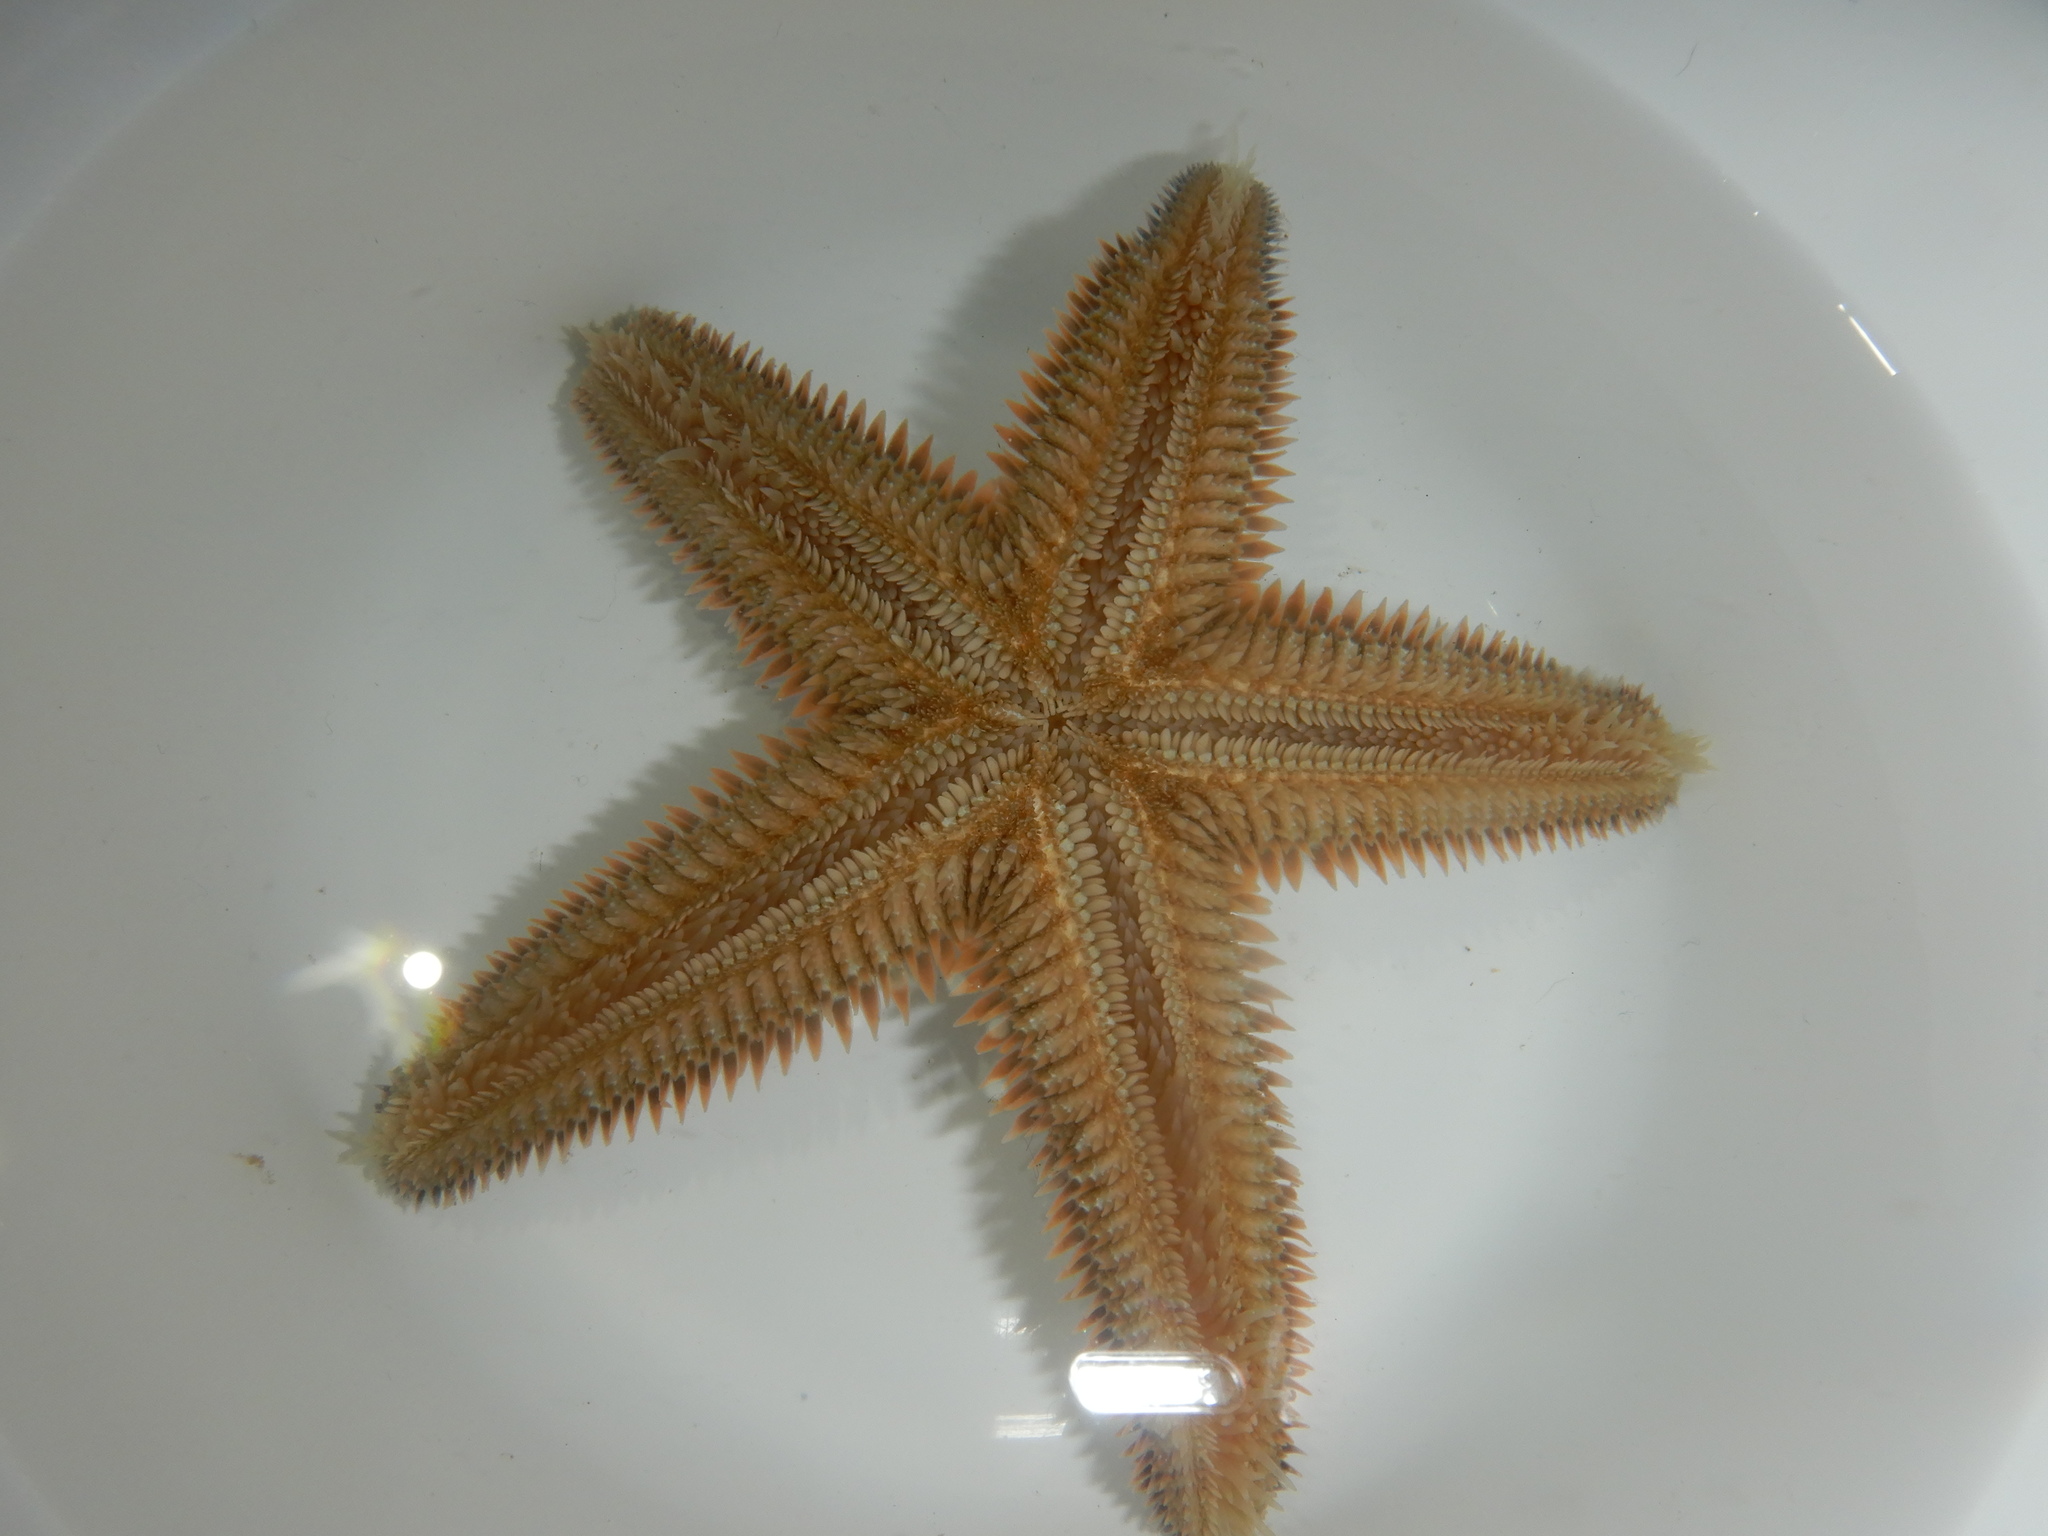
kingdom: Animalia
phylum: Echinodermata
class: Asteroidea
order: Paxillosida
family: Astropectinidae
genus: Astropecten
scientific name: Astropecten platyacanthus
